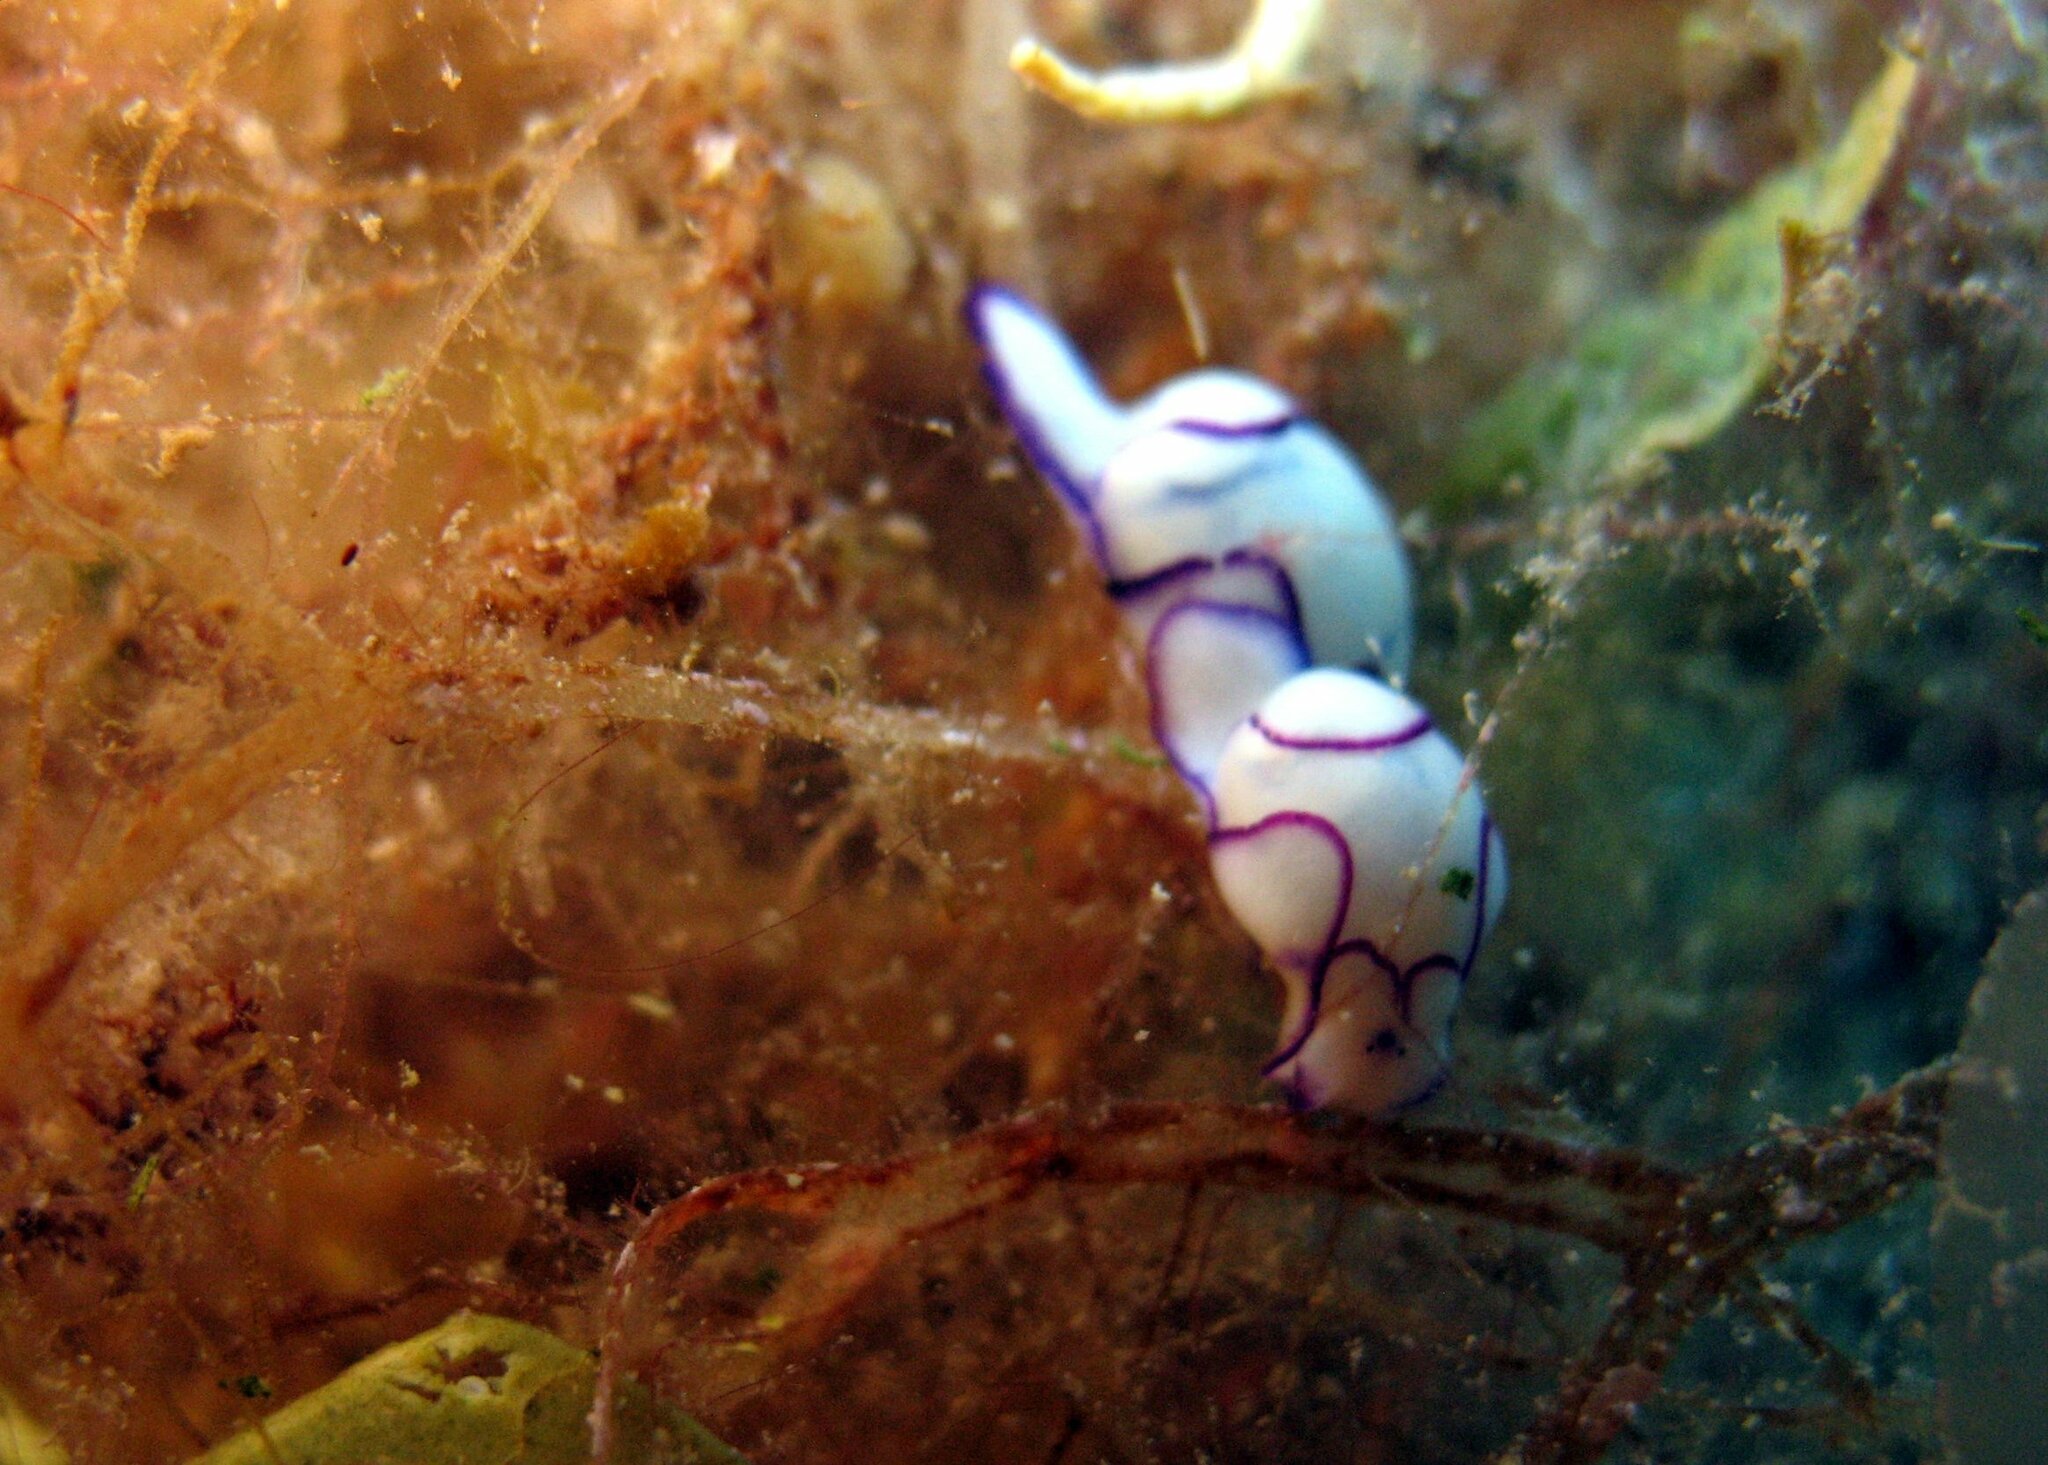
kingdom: Animalia
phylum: Mollusca
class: Gastropoda
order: Cephalaspidea
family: Haminoeidae
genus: Lamprohaminoea
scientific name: Lamprohaminoea ovalis
